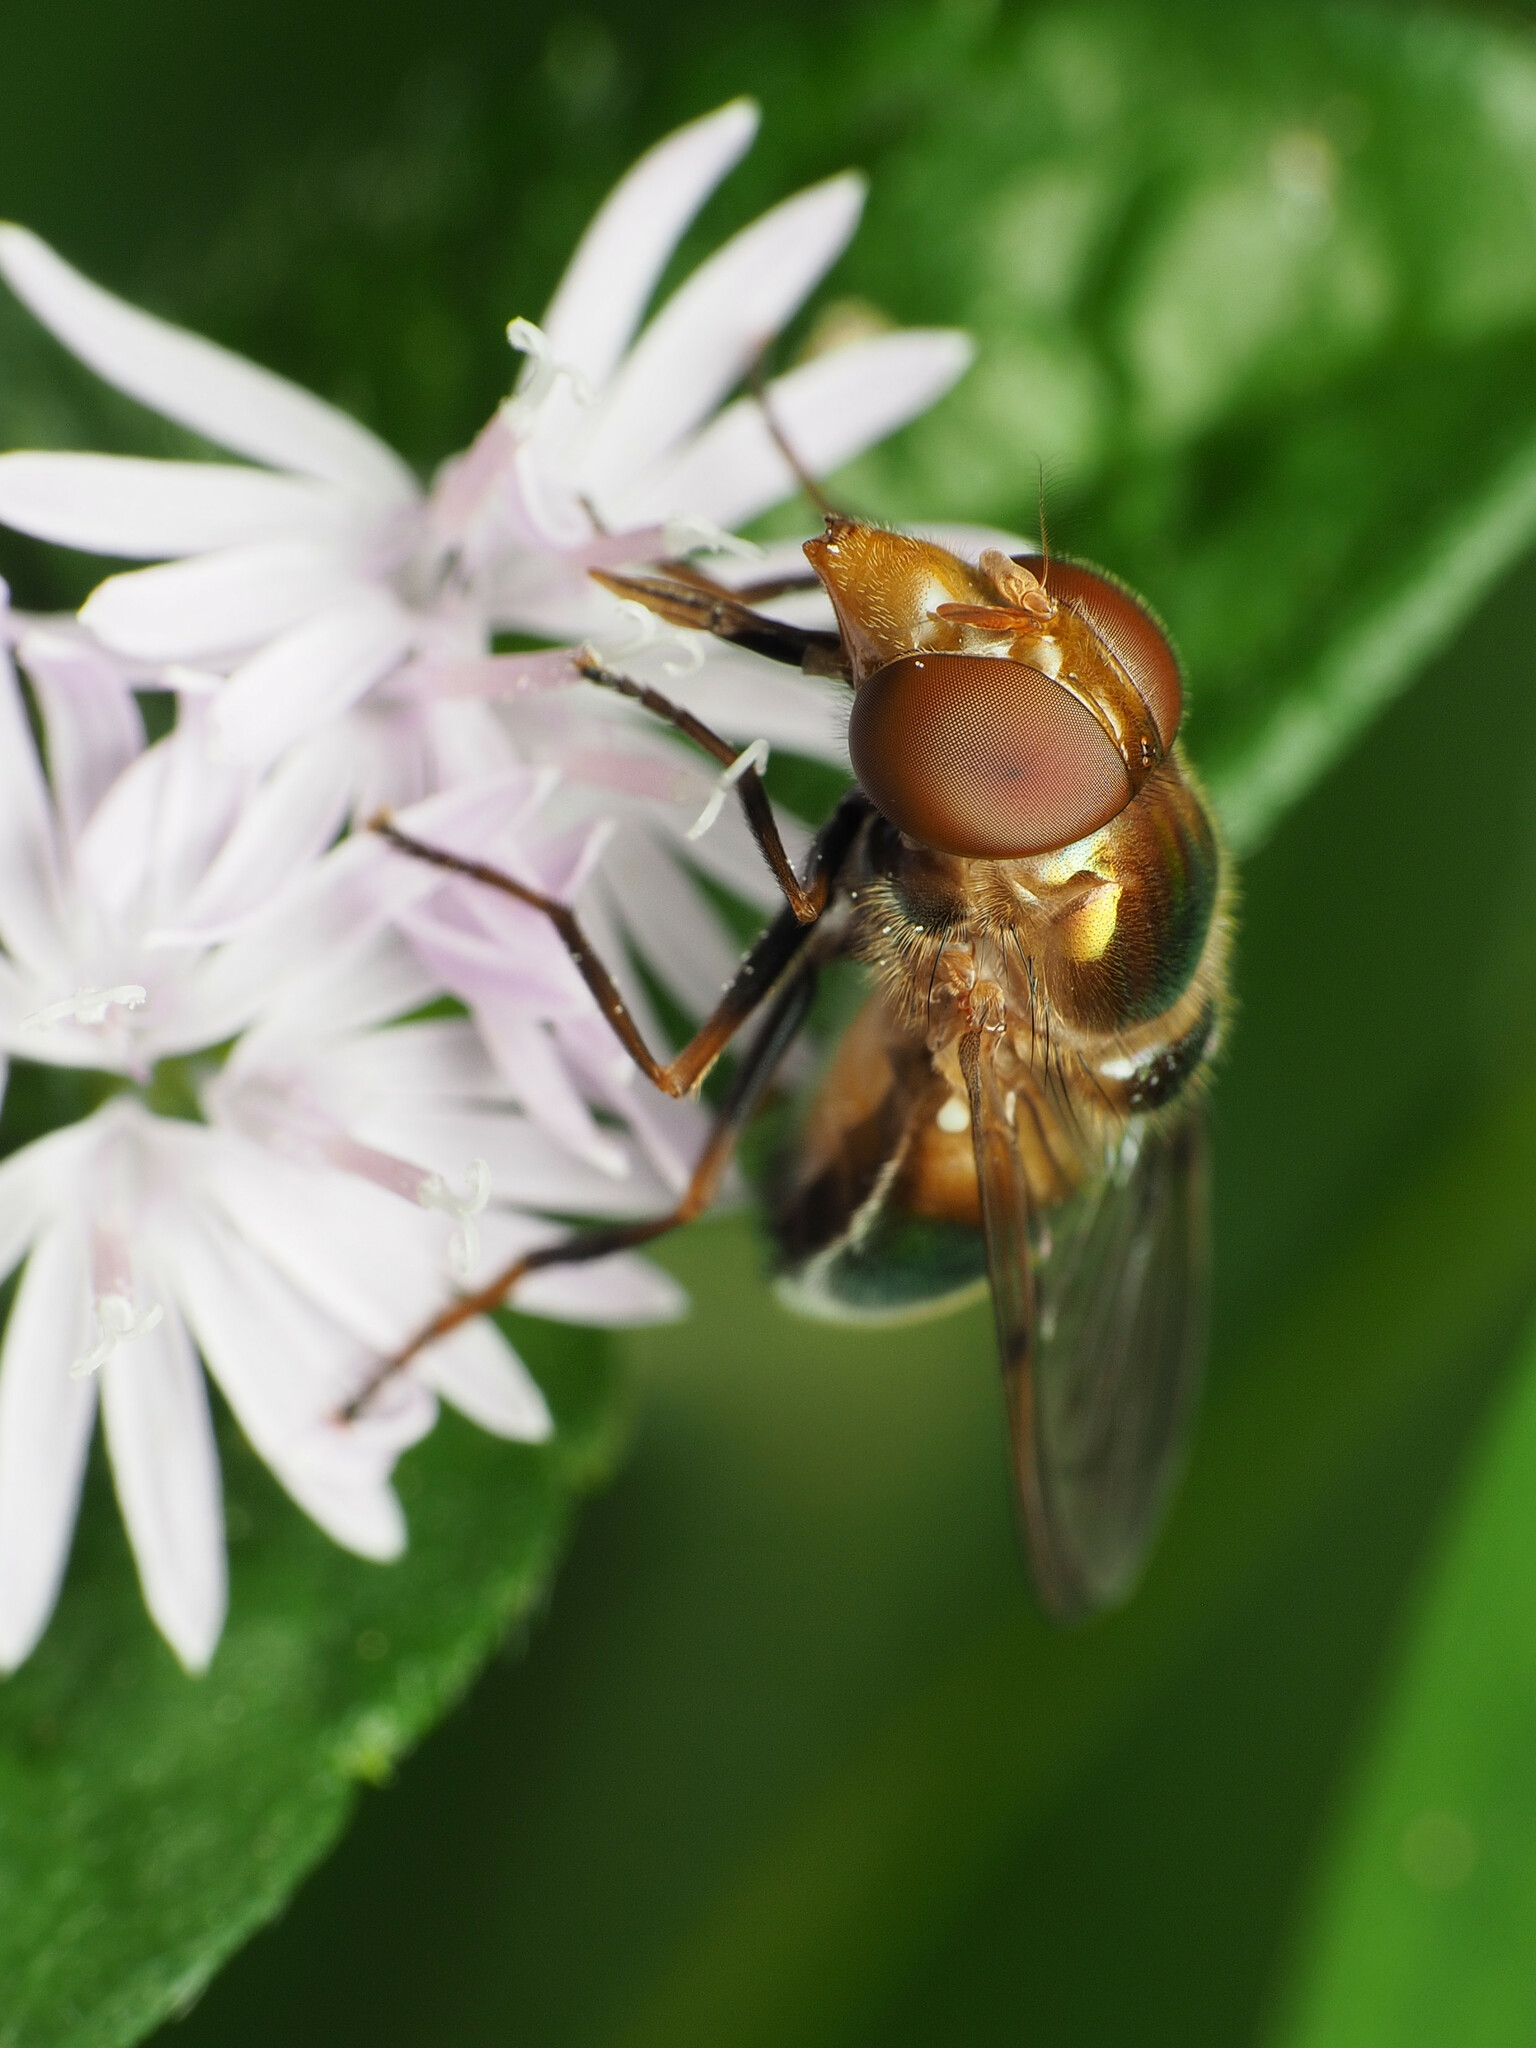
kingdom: Animalia
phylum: Arthropoda
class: Insecta
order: Diptera
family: Syrphidae
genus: Copestylum
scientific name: Copestylum vesicularium
